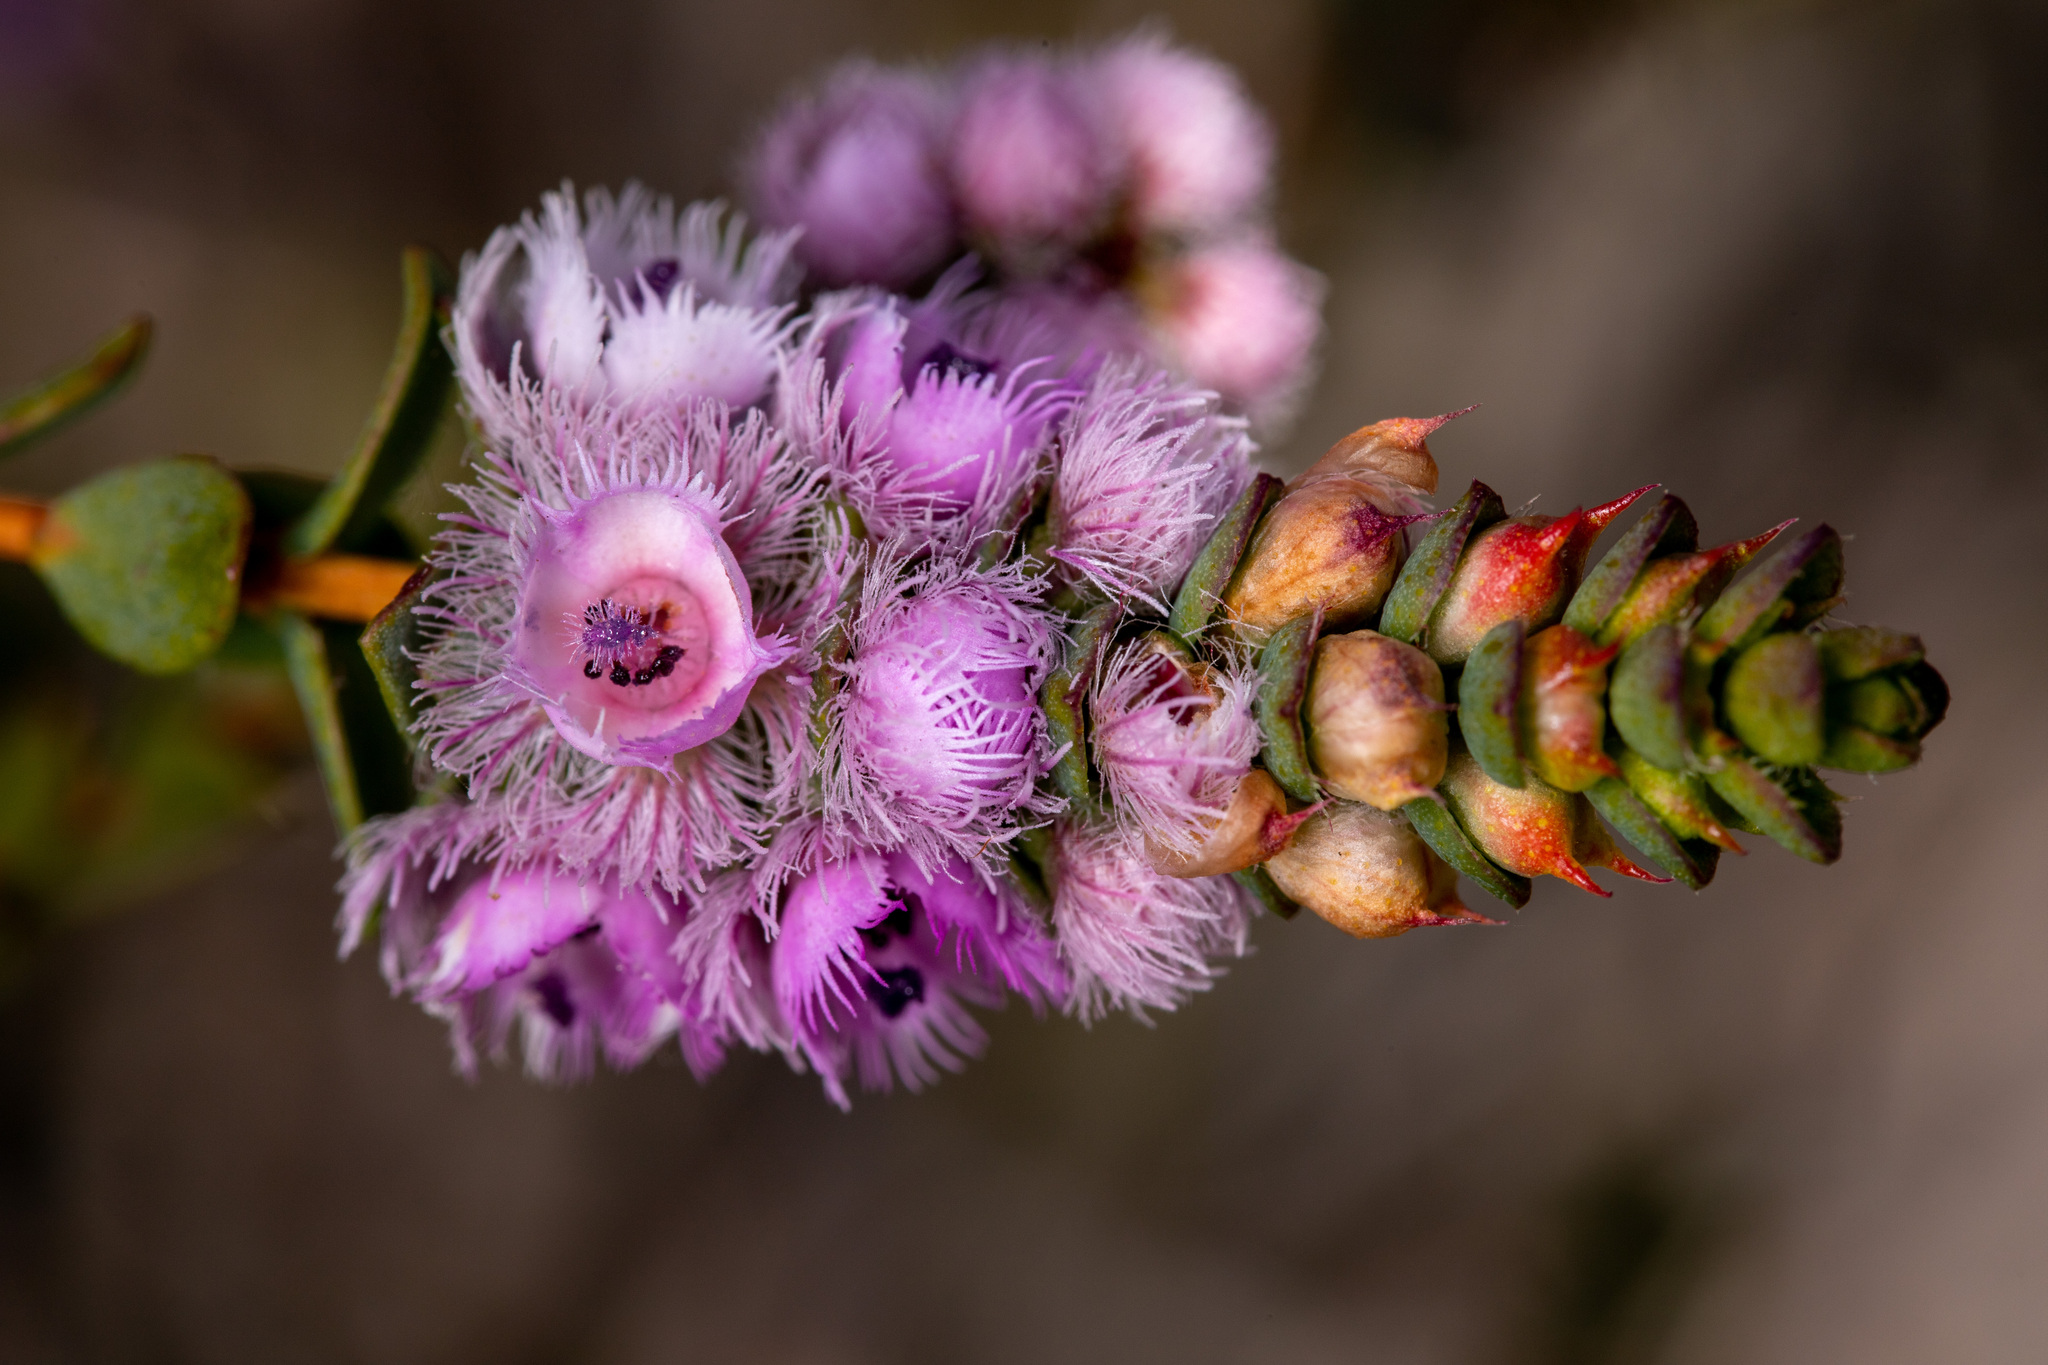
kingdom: Plantae
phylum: Tracheophyta
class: Magnoliopsida
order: Myrtales
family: Myrtaceae
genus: Verticordia
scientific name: Verticordia blepharophylla
